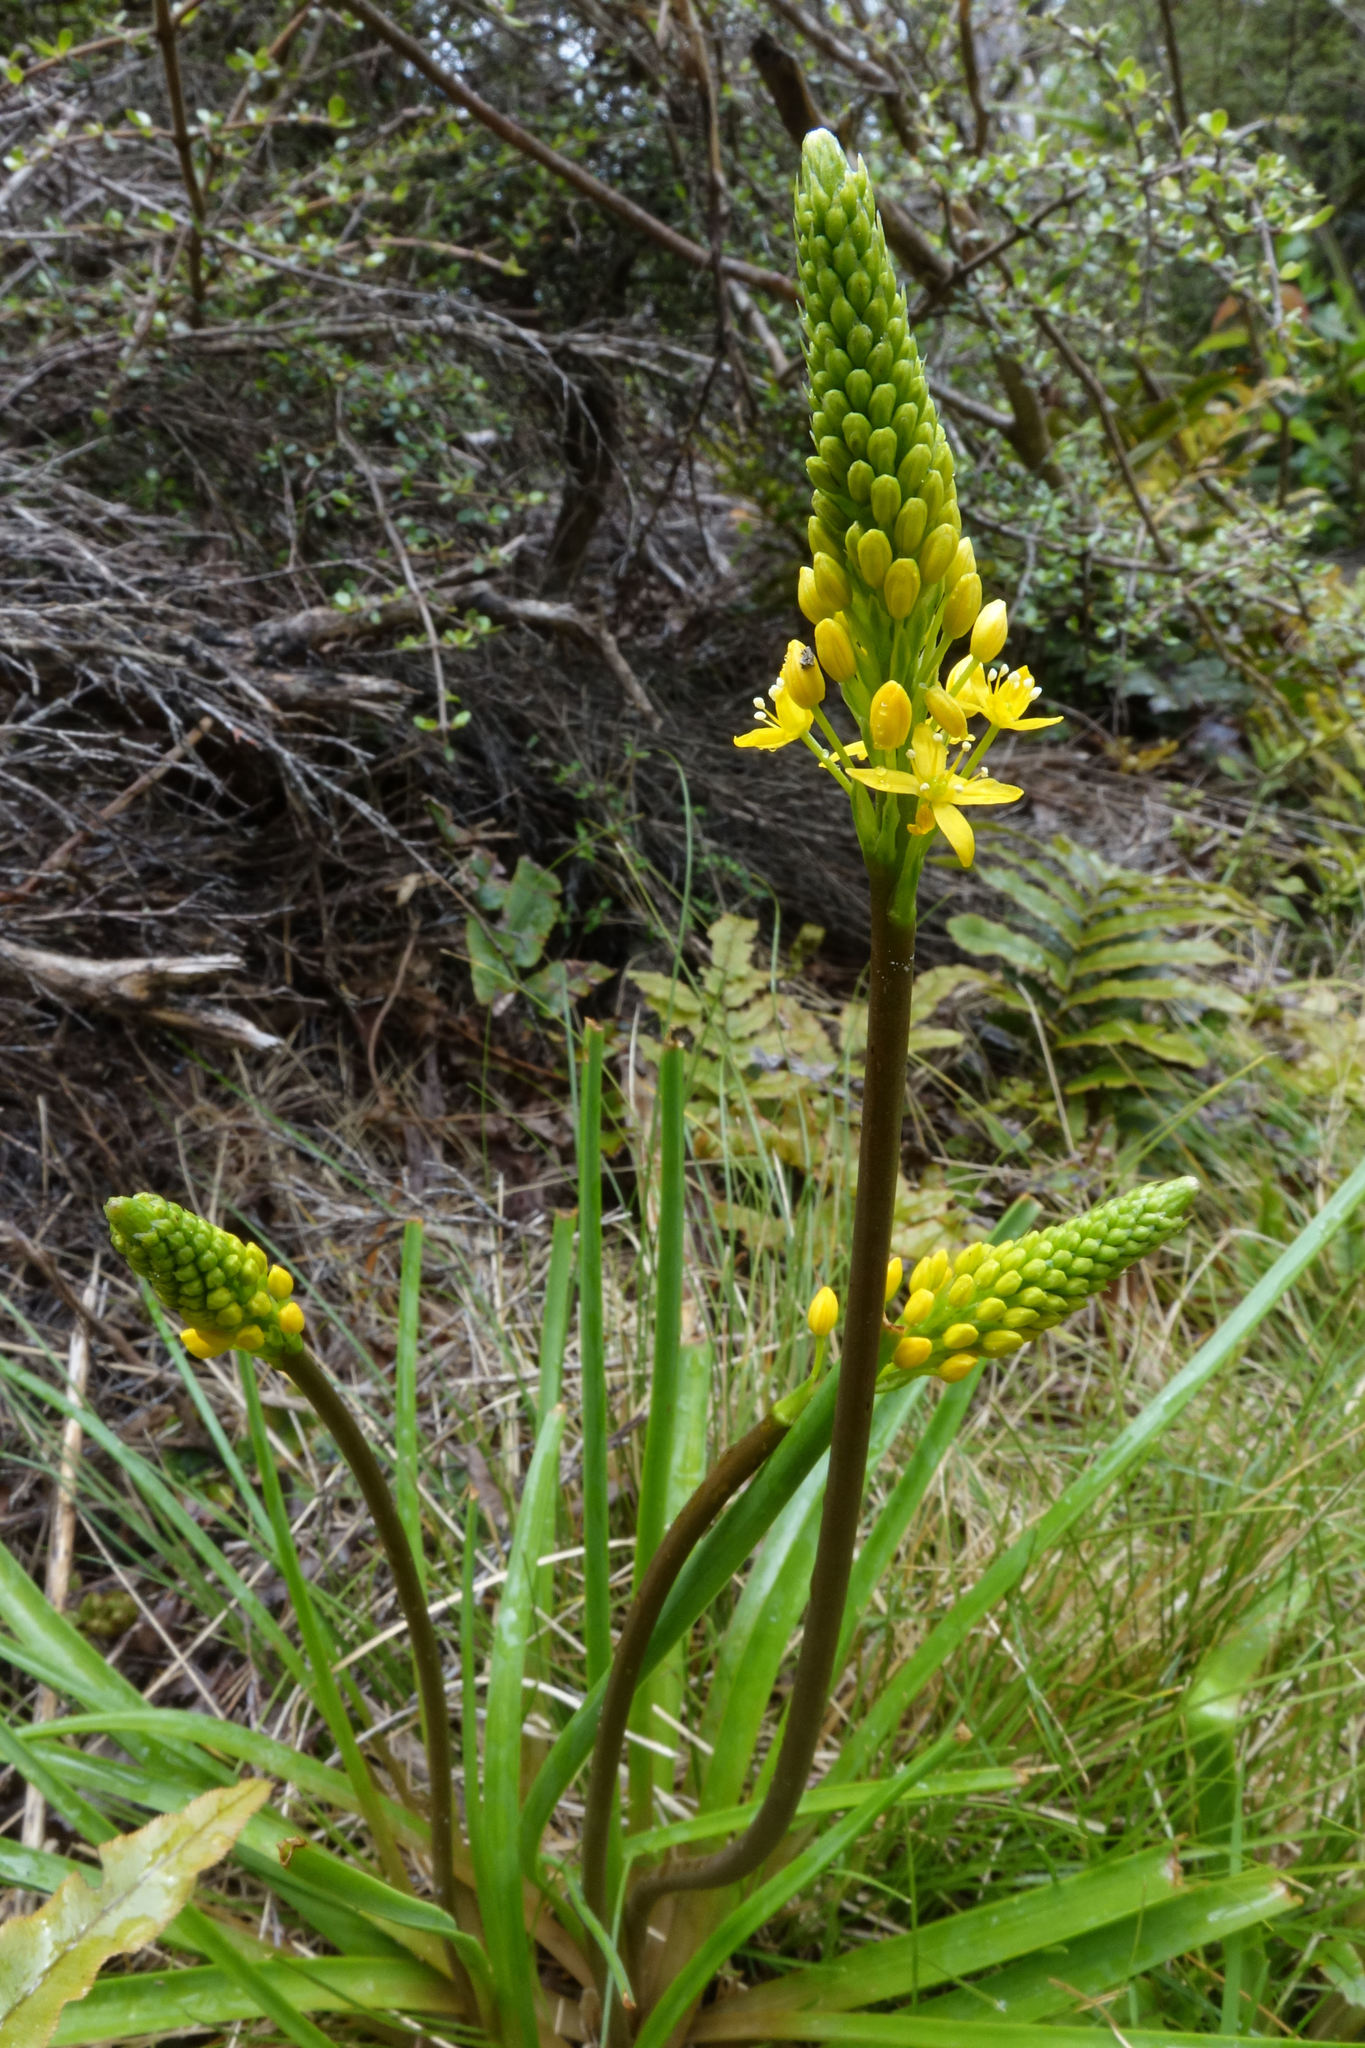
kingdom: Plantae
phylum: Tracheophyta
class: Liliopsida
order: Asparagales
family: Asphodelaceae
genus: Bulbinella
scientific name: Bulbinella angustifolia
